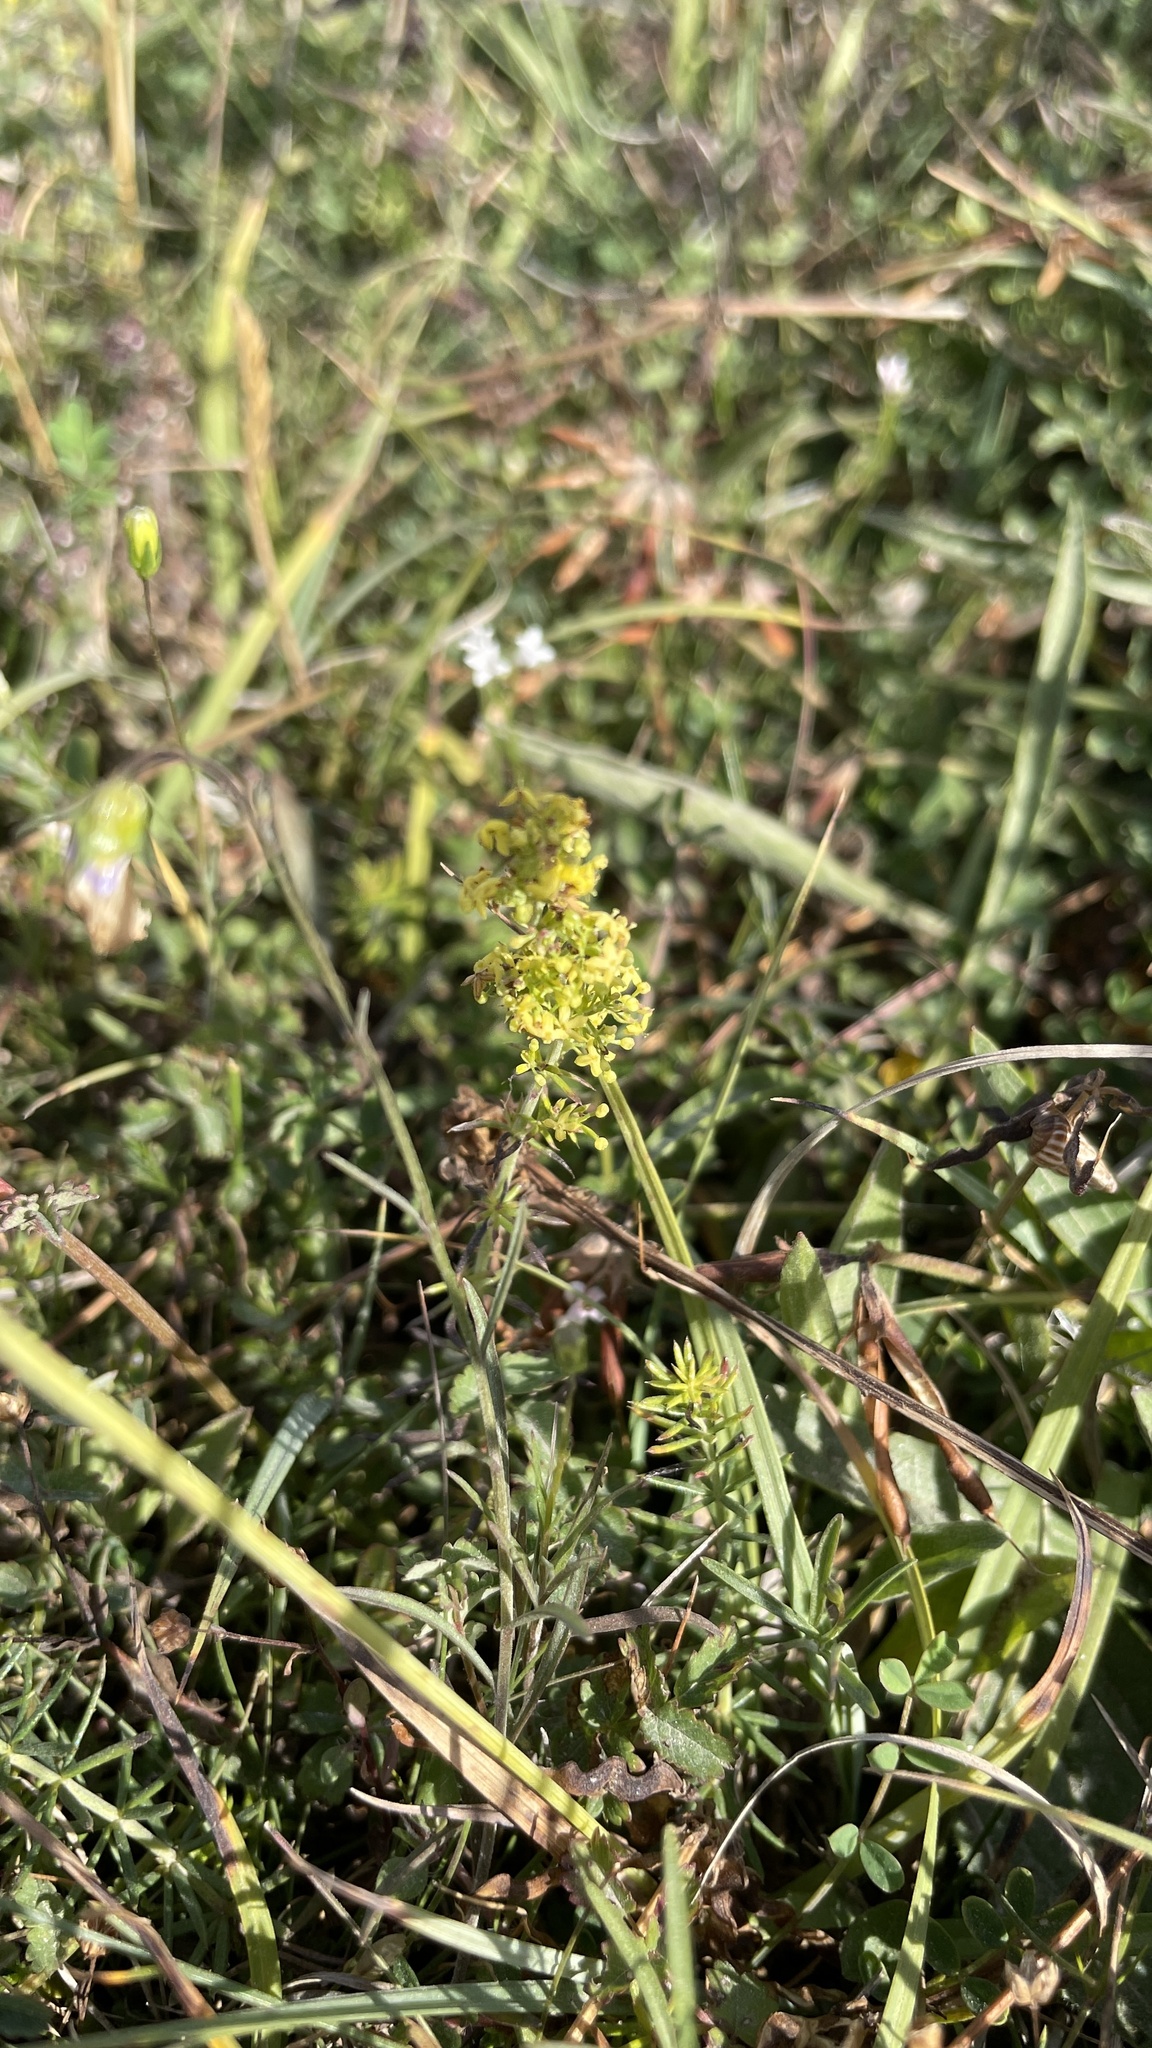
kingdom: Plantae
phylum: Tracheophyta
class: Magnoliopsida
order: Gentianales
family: Rubiaceae
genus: Galium
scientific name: Galium verum
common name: Lady's bedstraw
